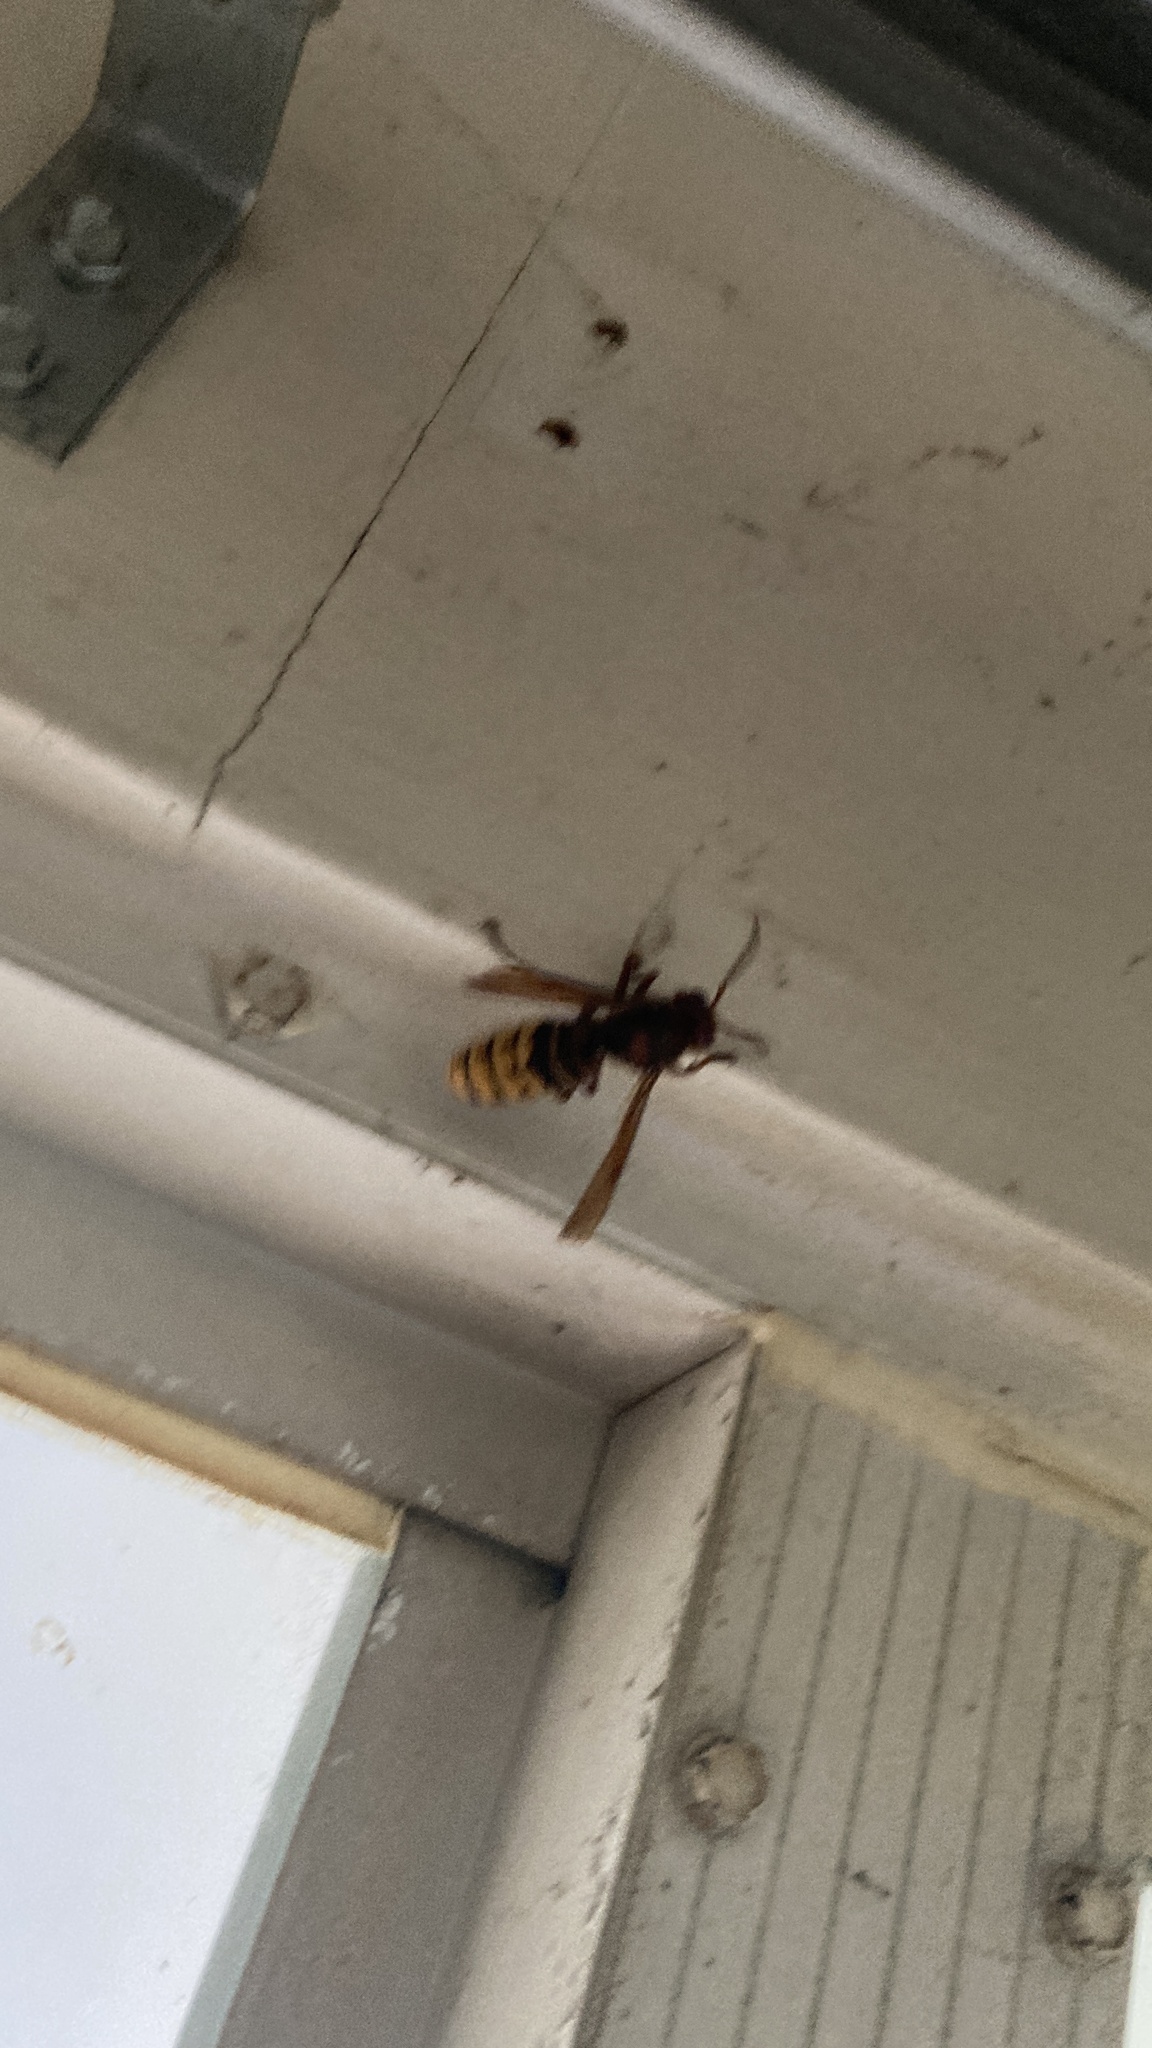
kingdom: Animalia
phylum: Arthropoda
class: Insecta
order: Hymenoptera
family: Vespidae
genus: Vespa
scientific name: Vespa crabro
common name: Hornet
